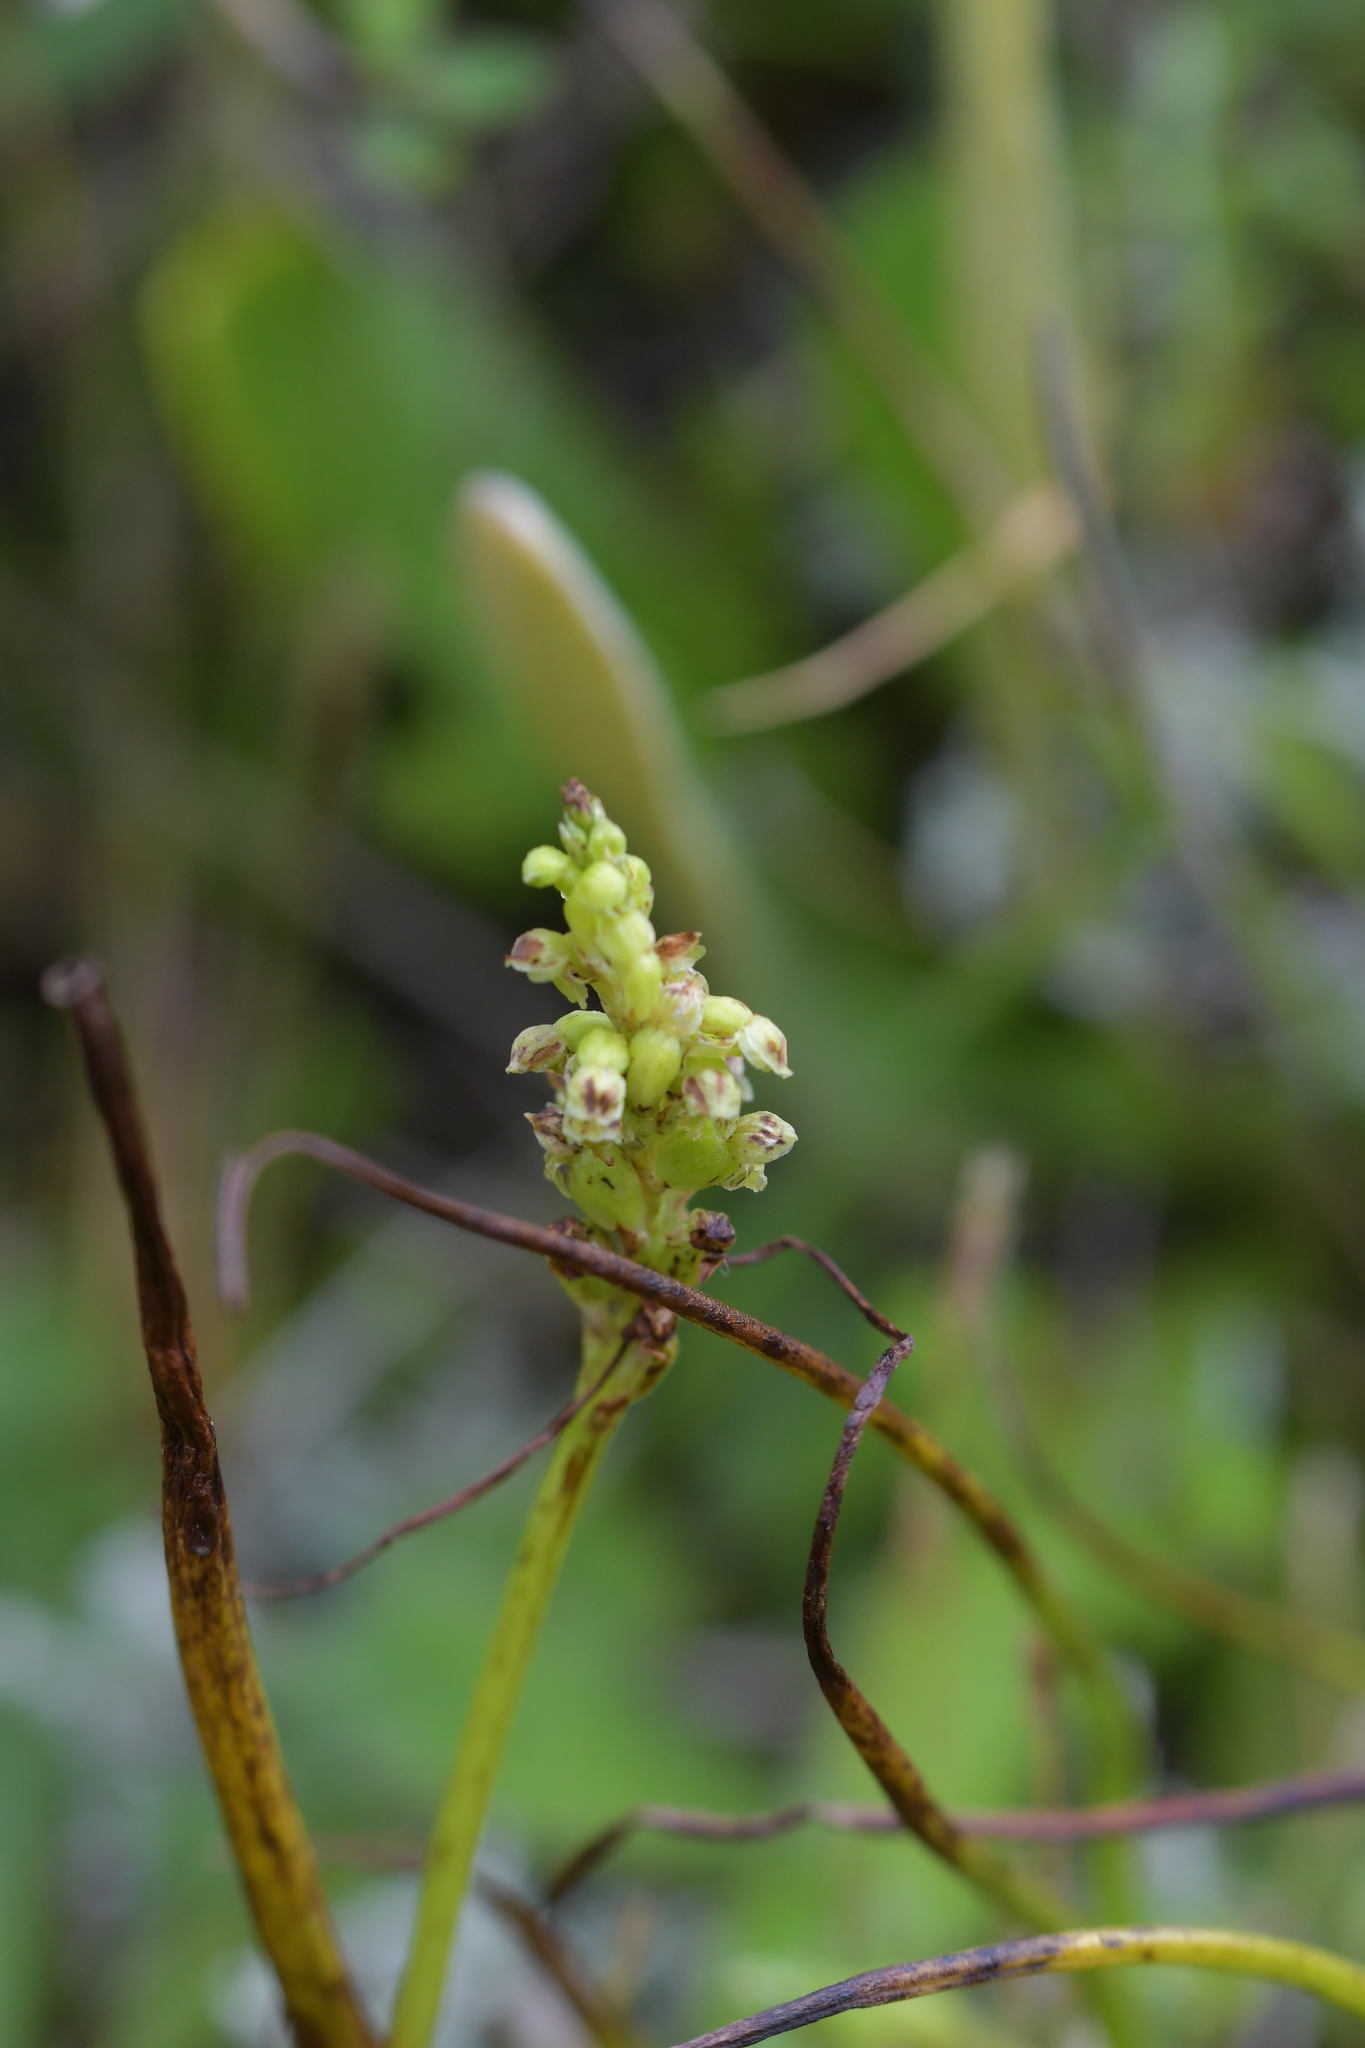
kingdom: Plantae
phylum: Tracheophyta
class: Liliopsida
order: Asparagales
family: Orchidaceae
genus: Microtis
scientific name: Microtis unifolia
